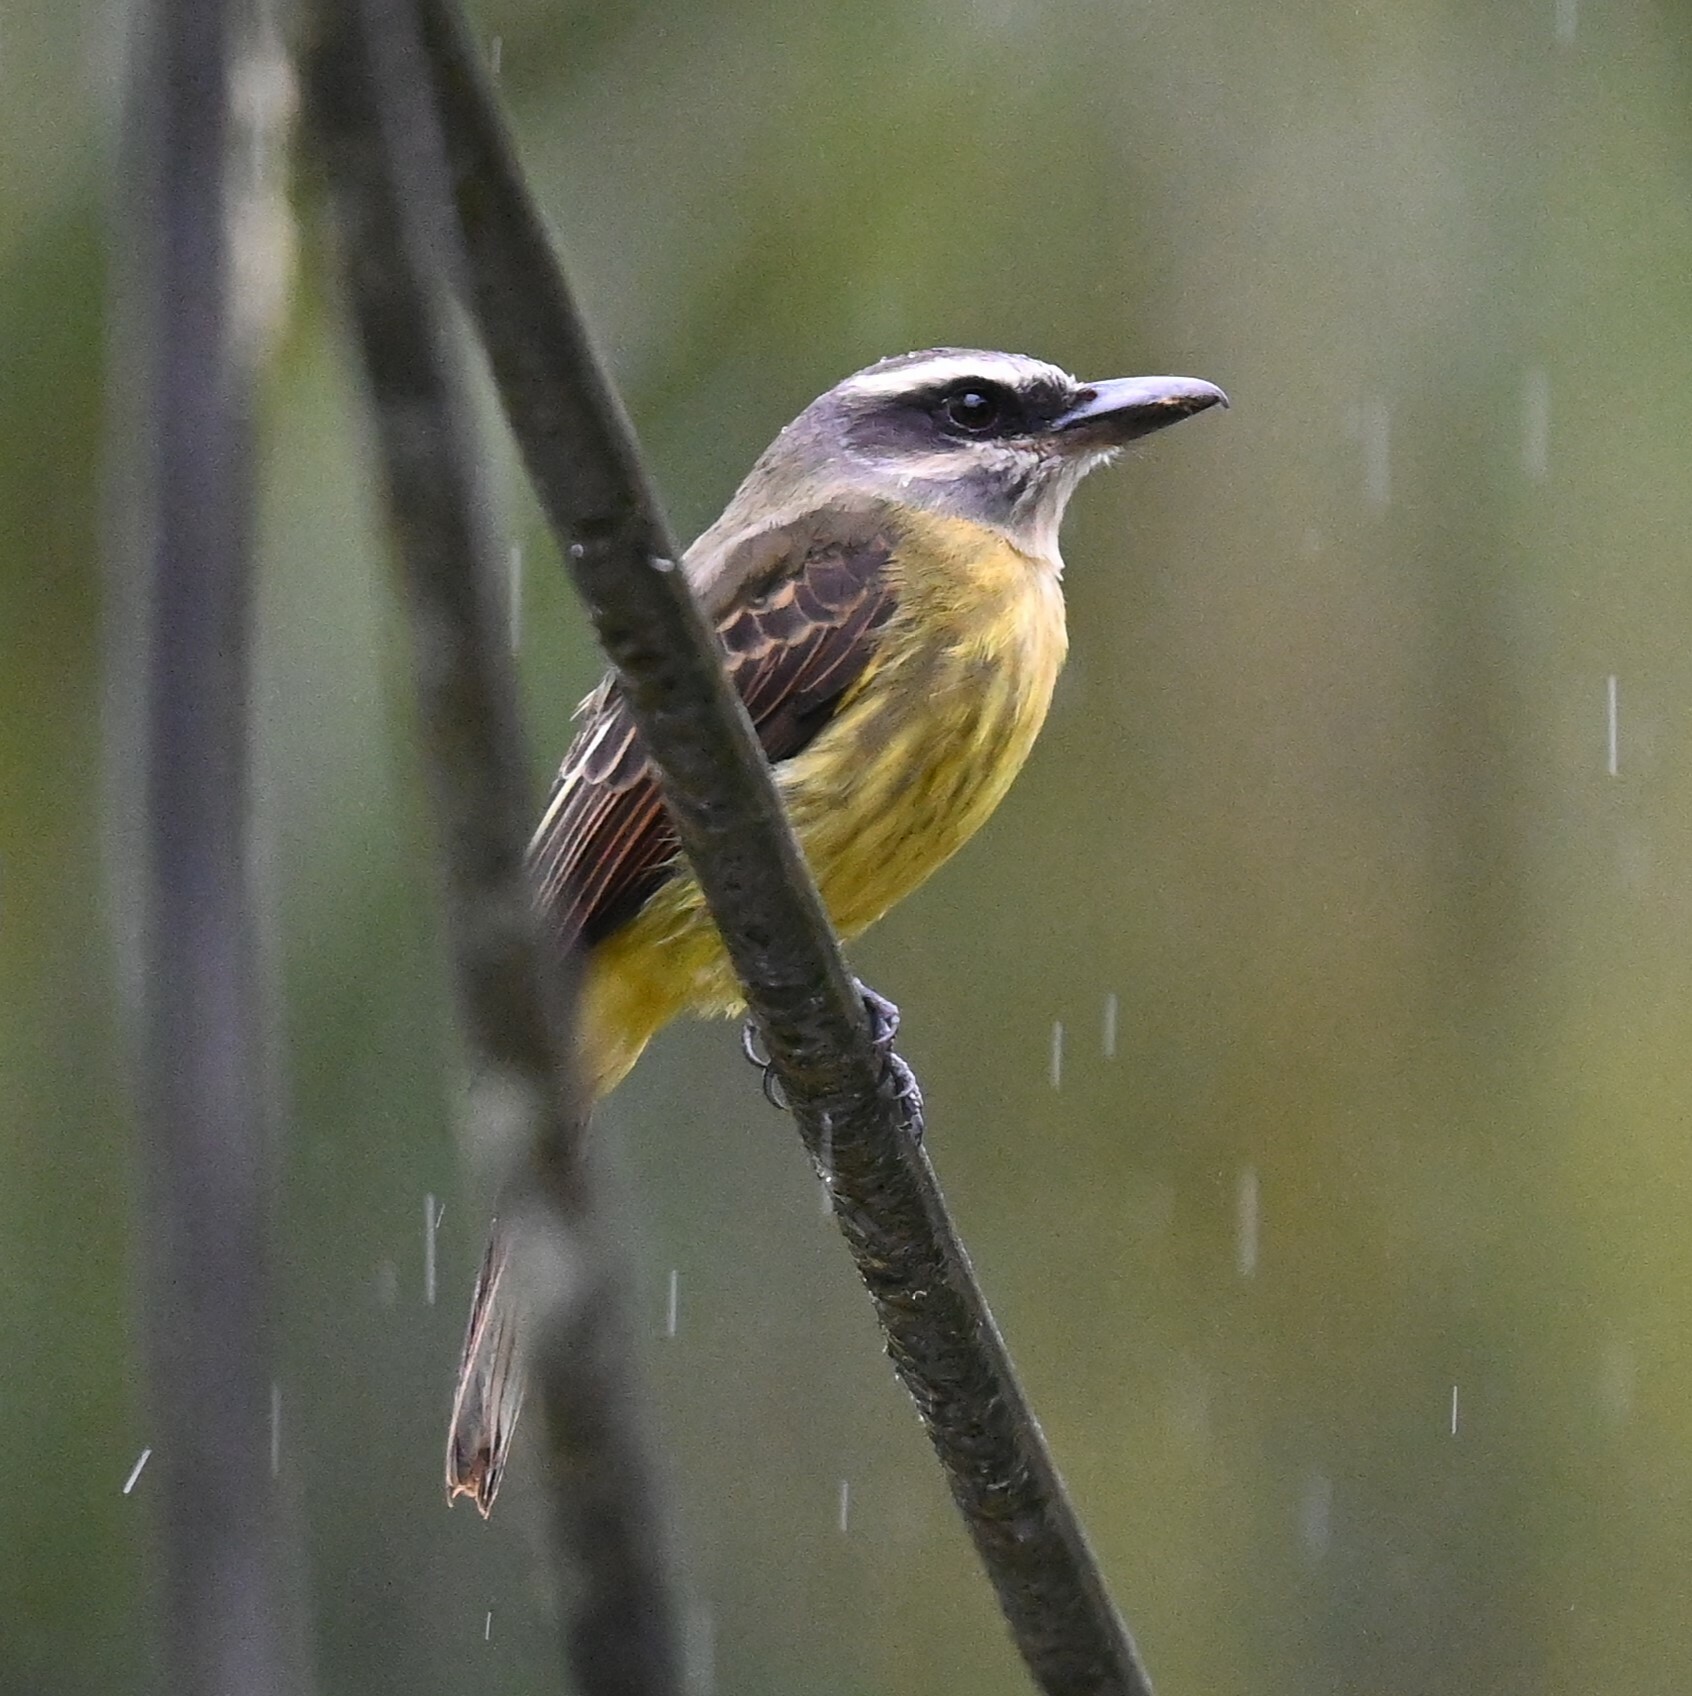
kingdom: Animalia
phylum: Chordata
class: Aves
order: Passeriformes
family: Tyrannidae
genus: Myiodynastes
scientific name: Myiodynastes hemichrysus
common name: Golden-bellied flycatcher
